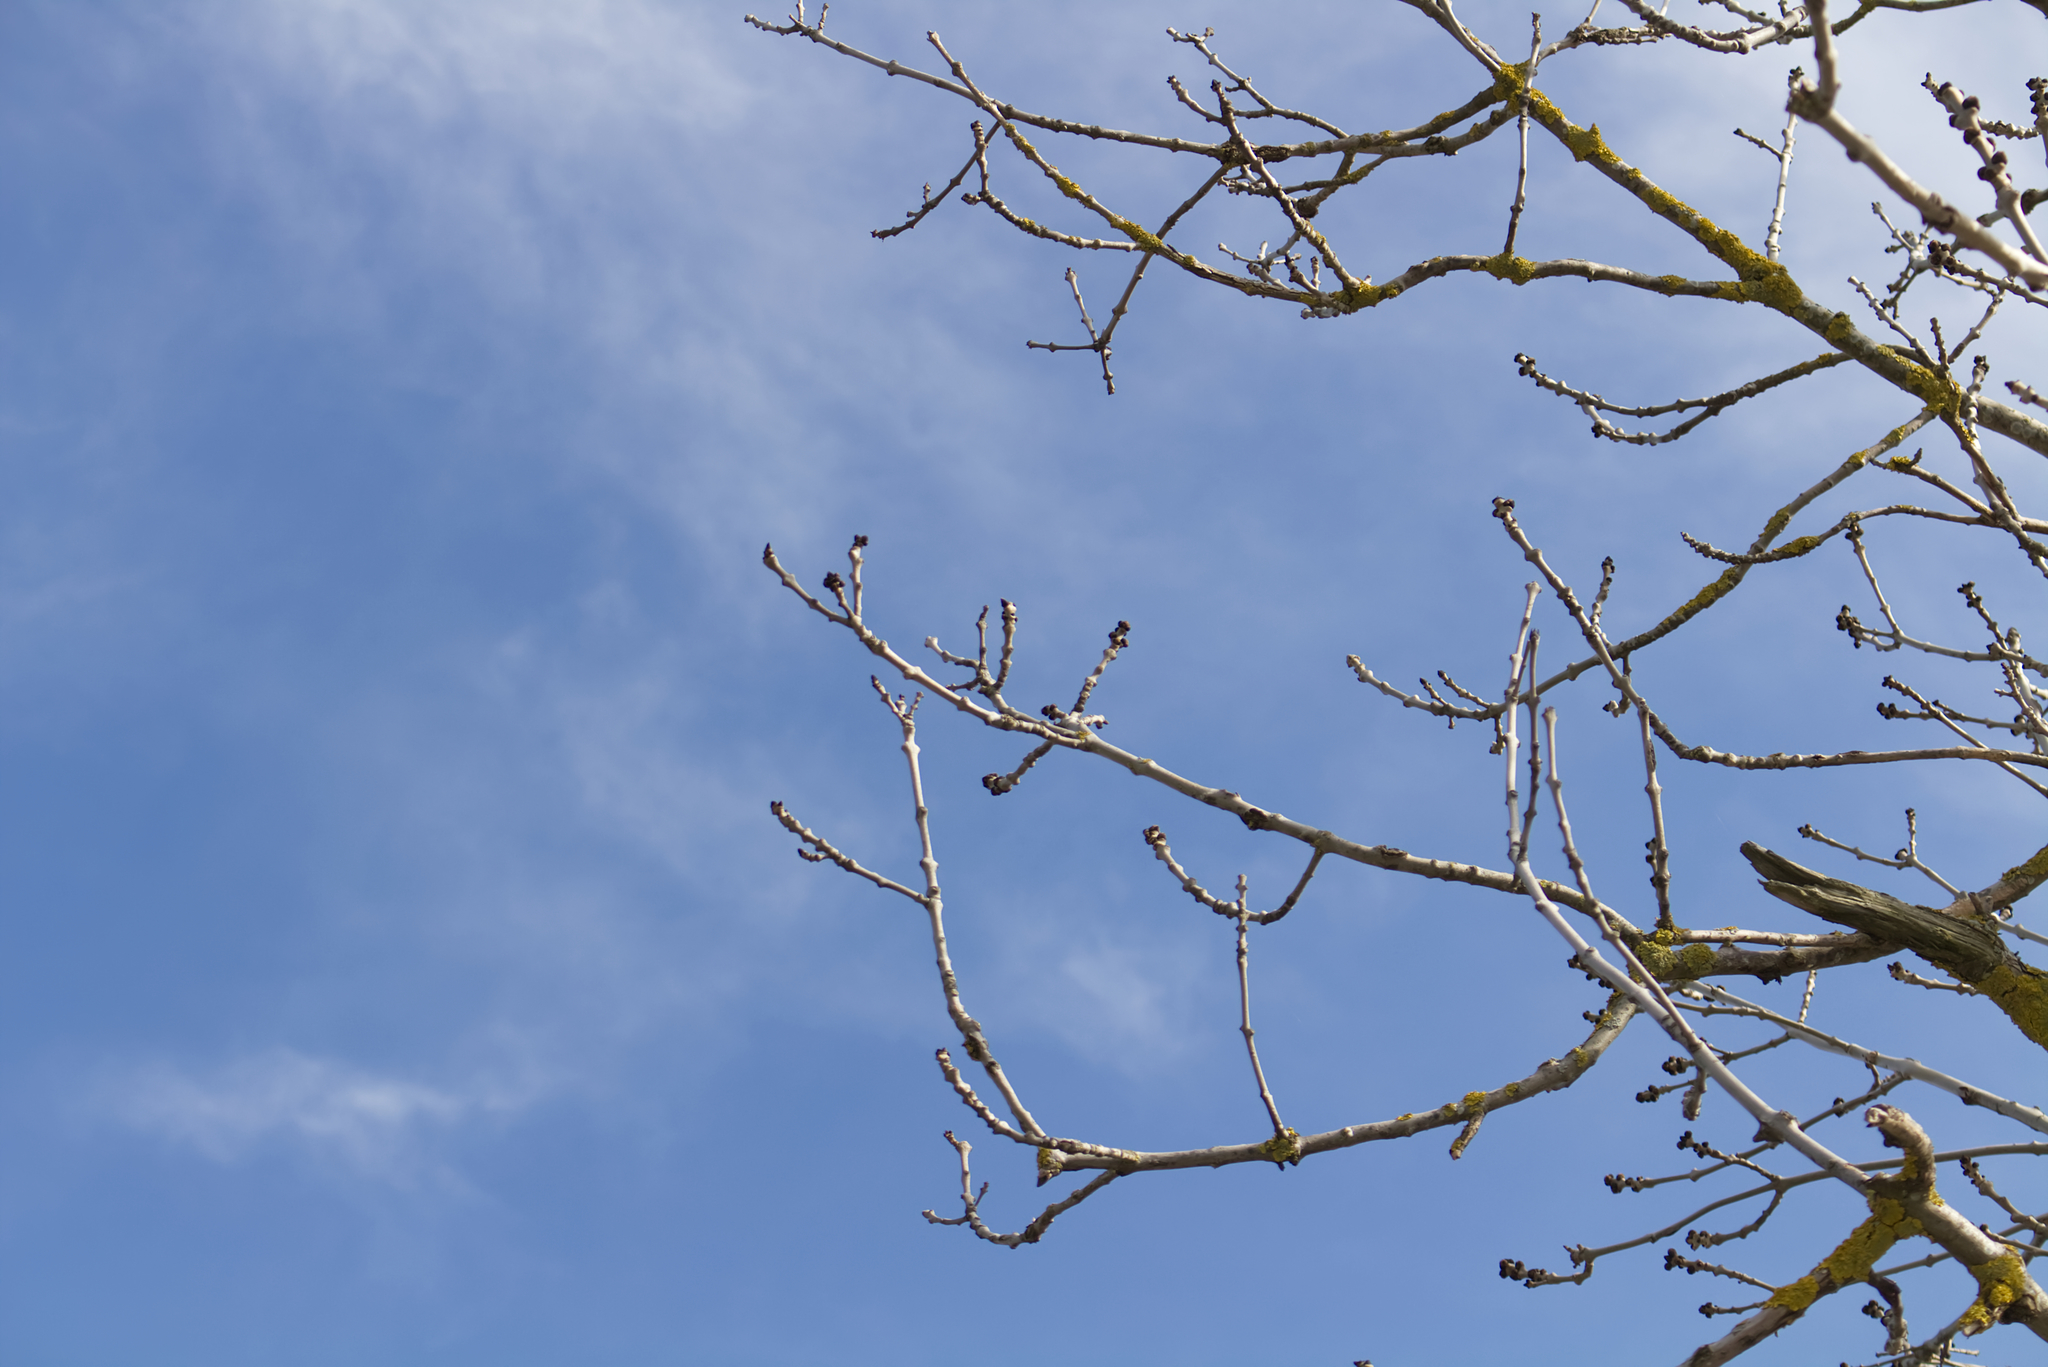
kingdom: Plantae
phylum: Tracheophyta
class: Magnoliopsida
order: Lamiales
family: Oleaceae
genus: Fraxinus
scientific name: Fraxinus excelsior
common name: European ash
